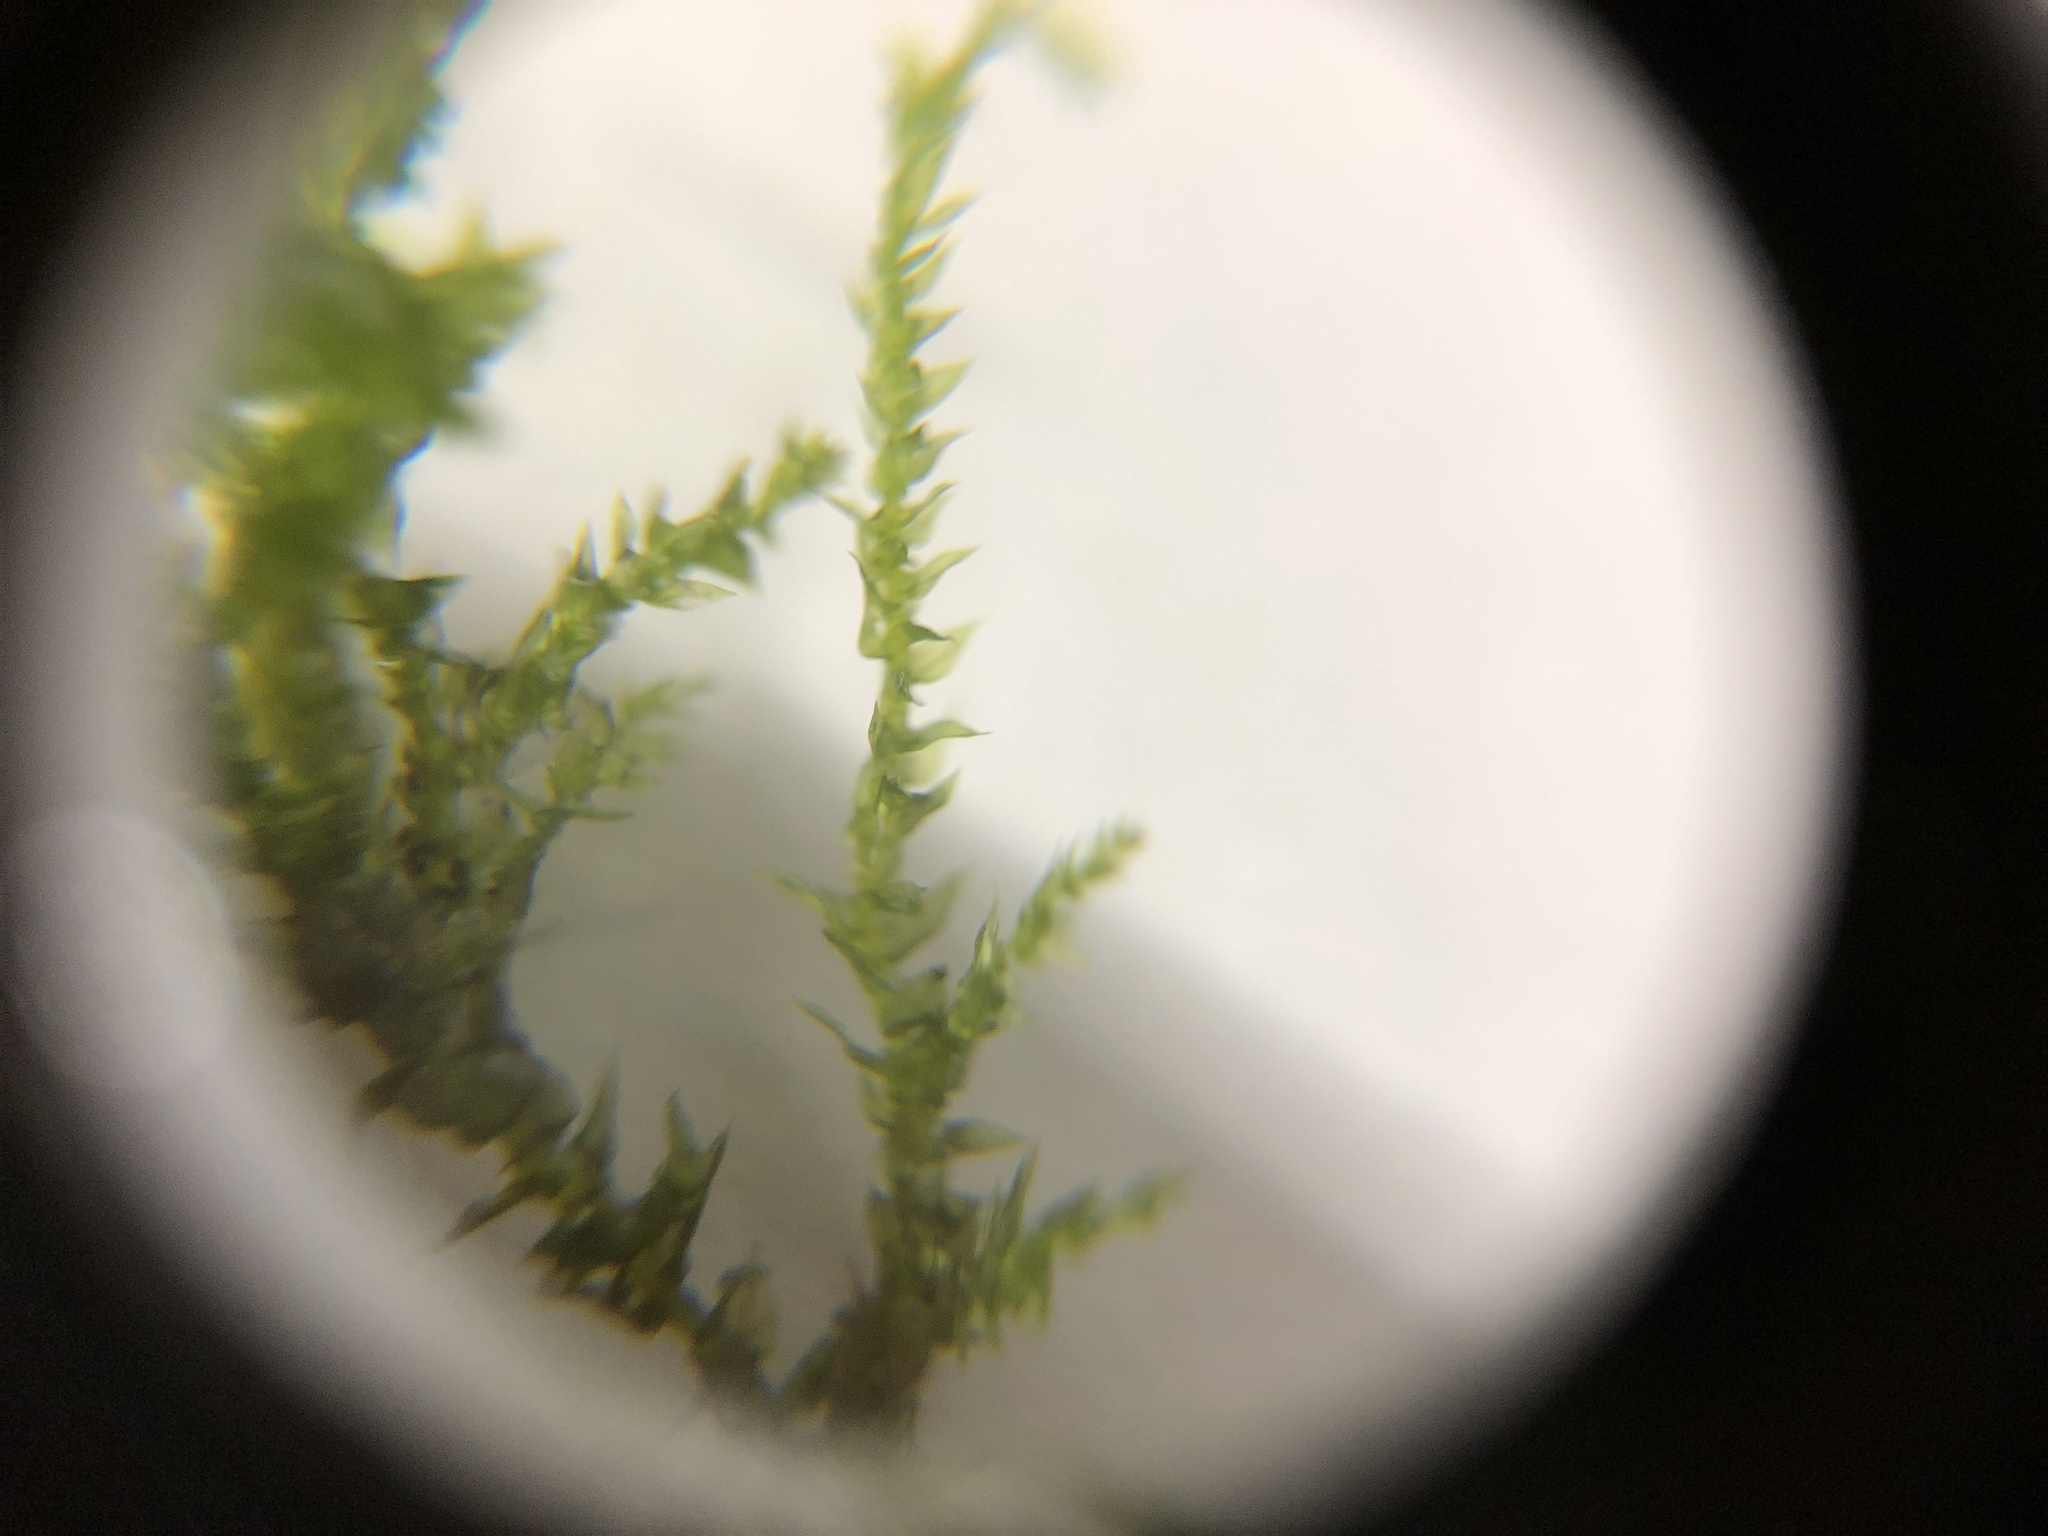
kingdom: Plantae
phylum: Bryophyta
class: Bryopsida
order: Hypnales
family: Brachytheciaceae
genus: Brachythecium
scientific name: Brachythecium rutabulum
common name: Rough-stalked feather-moss
